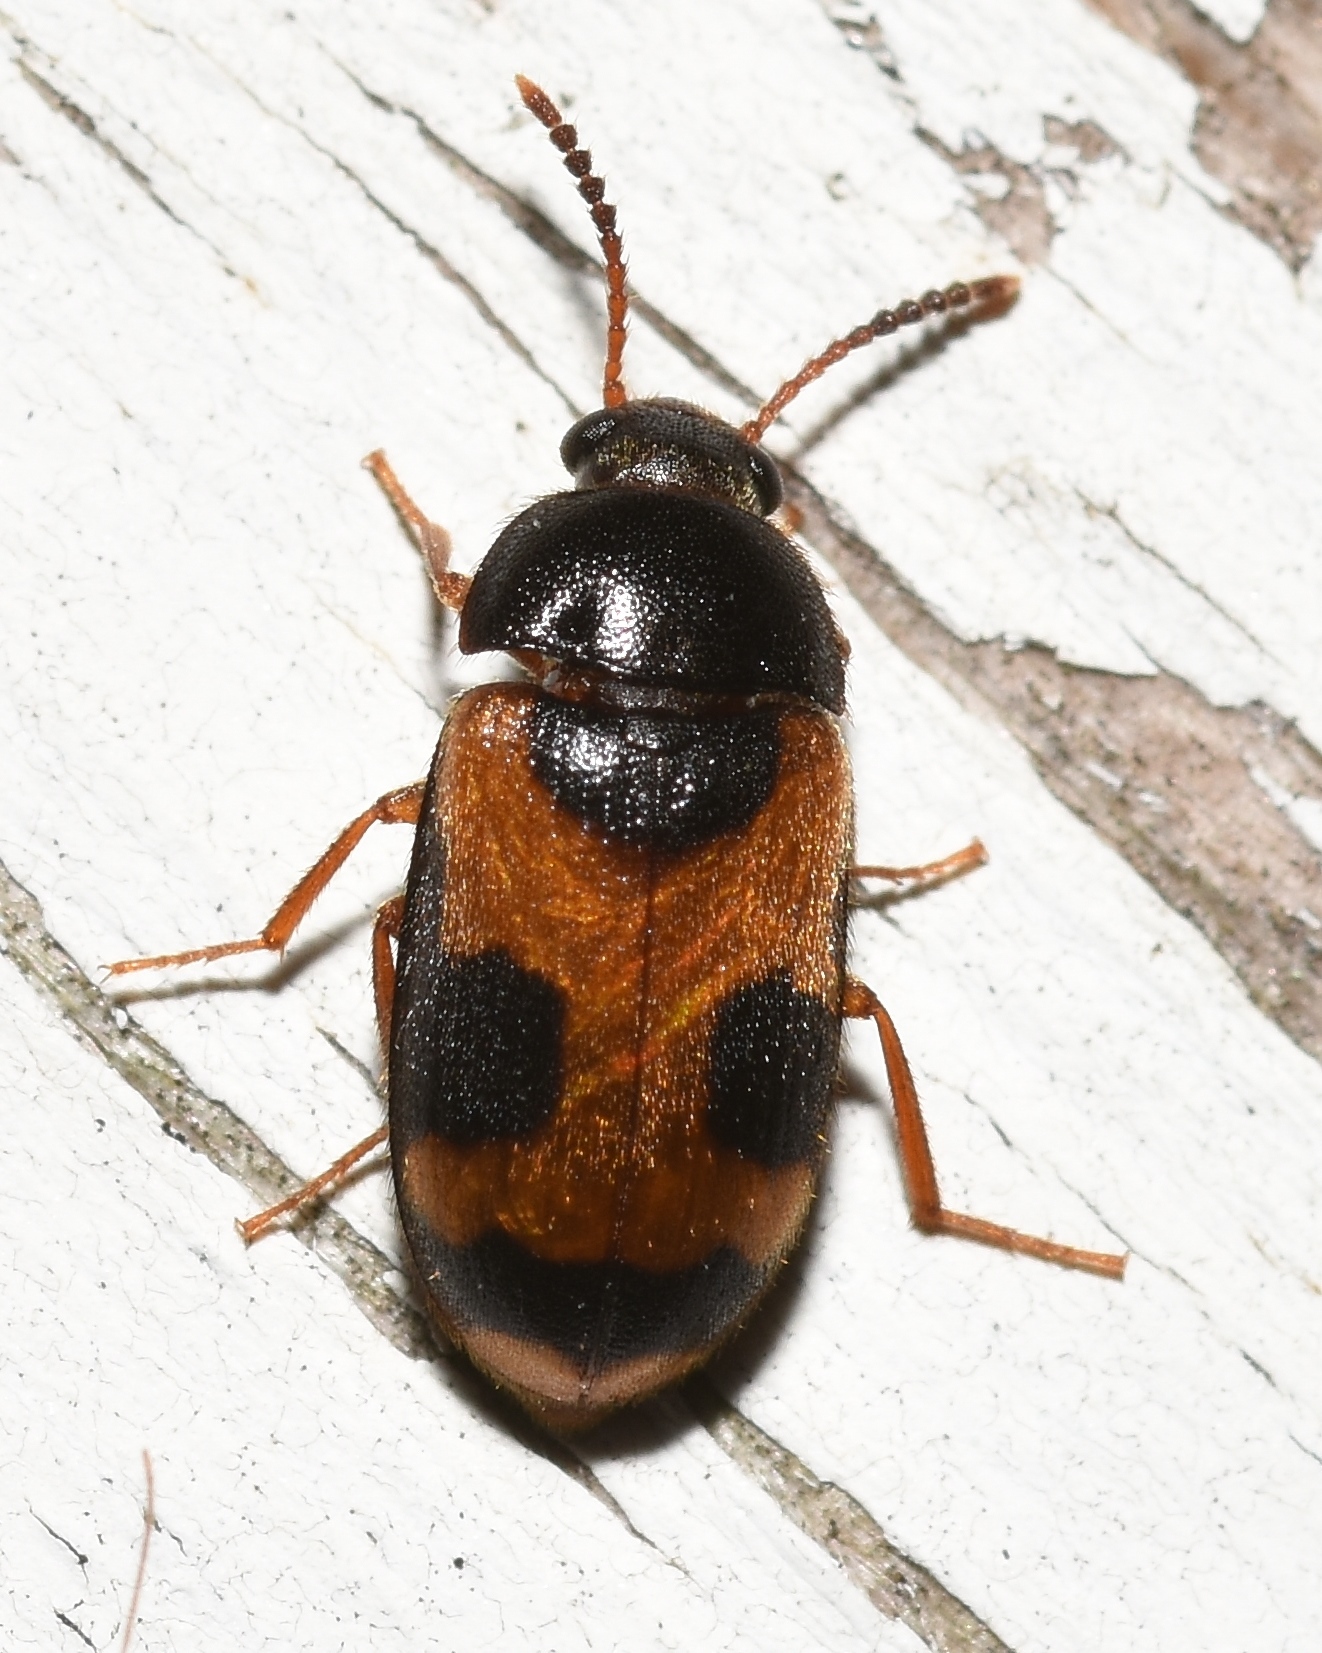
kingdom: Animalia
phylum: Arthropoda
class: Insecta
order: Coleoptera
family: Mycetophagidae
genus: Mycetophagus
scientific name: Mycetophagus punctatus
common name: Hairy fungus beetle
